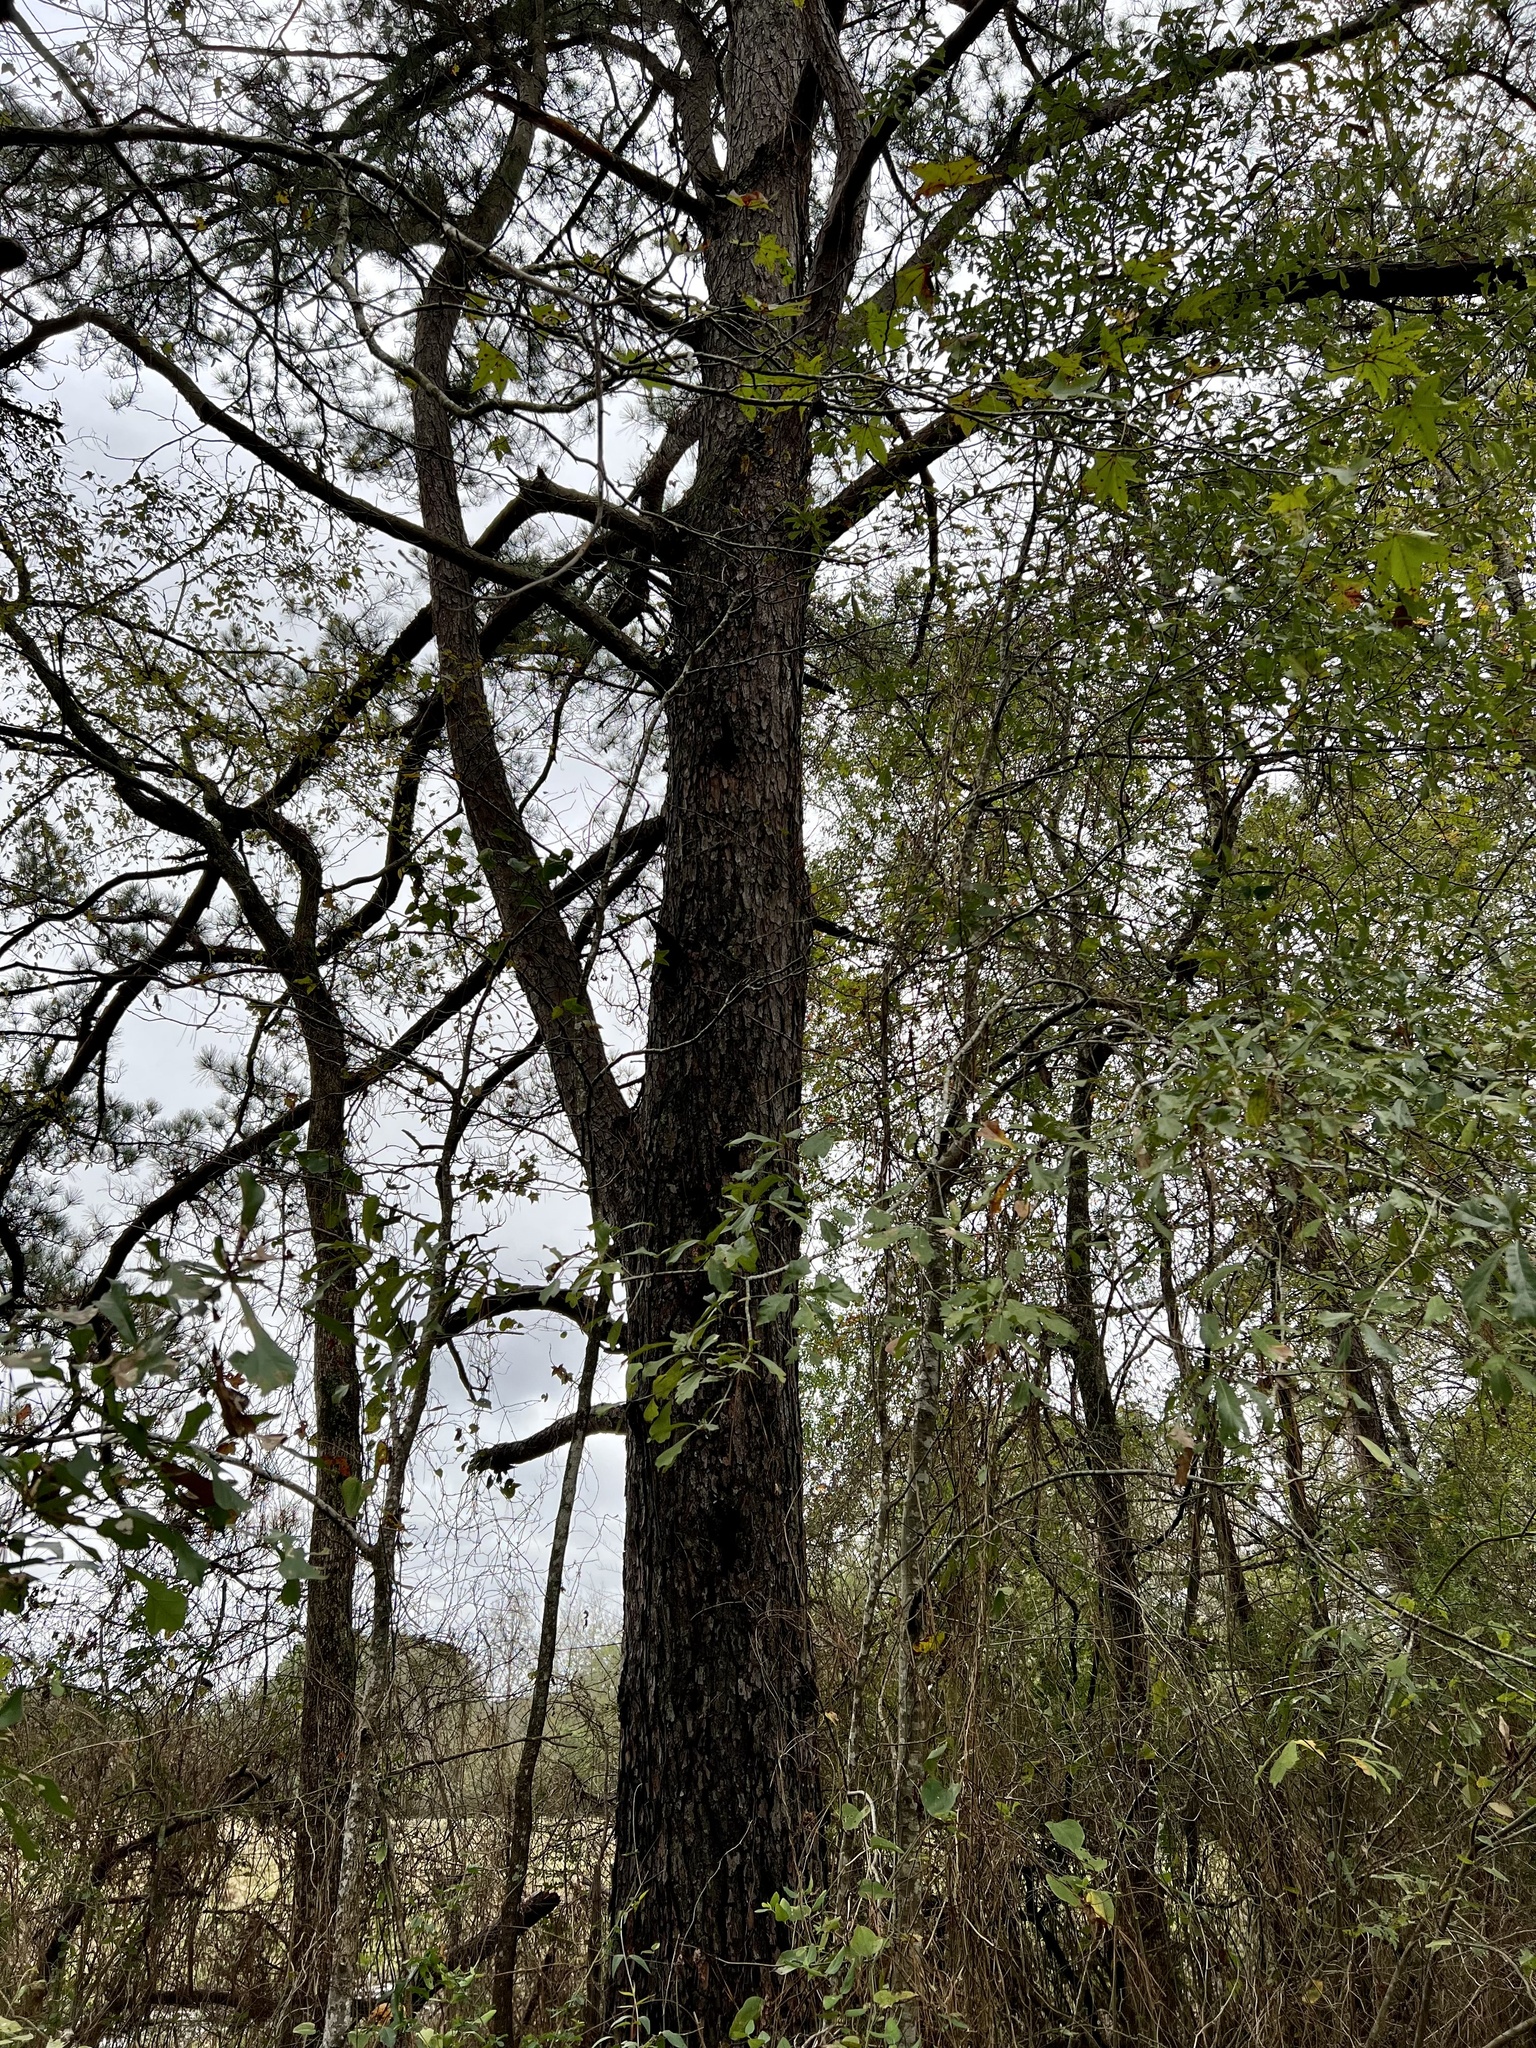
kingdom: Plantae
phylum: Tracheophyta
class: Pinopsida
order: Pinales
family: Pinaceae
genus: Pinus
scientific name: Pinus taeda
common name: Loblolly pine
